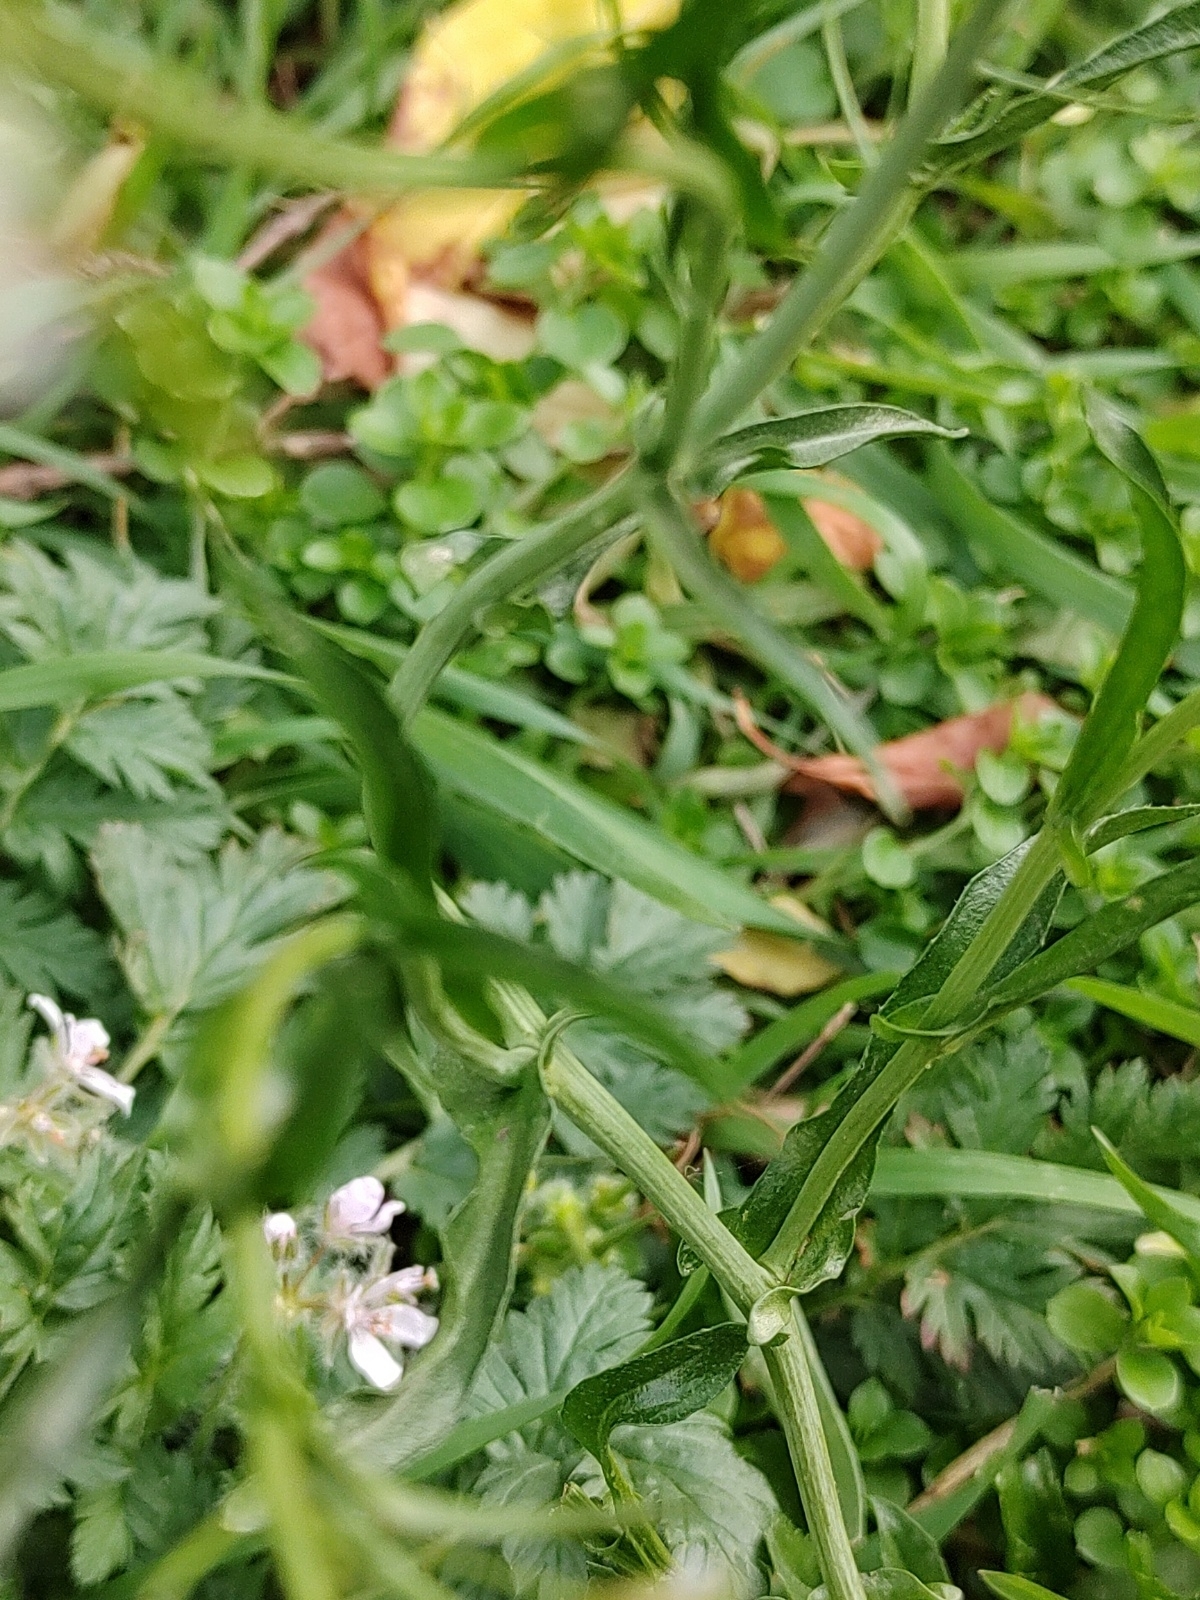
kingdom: Plantae
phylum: Tracheophyta
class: Magnoliopsida
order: Brassicales
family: Brassicaceae
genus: Capsella
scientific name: Capsella bursa-pastoris
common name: Shepherd's purse
